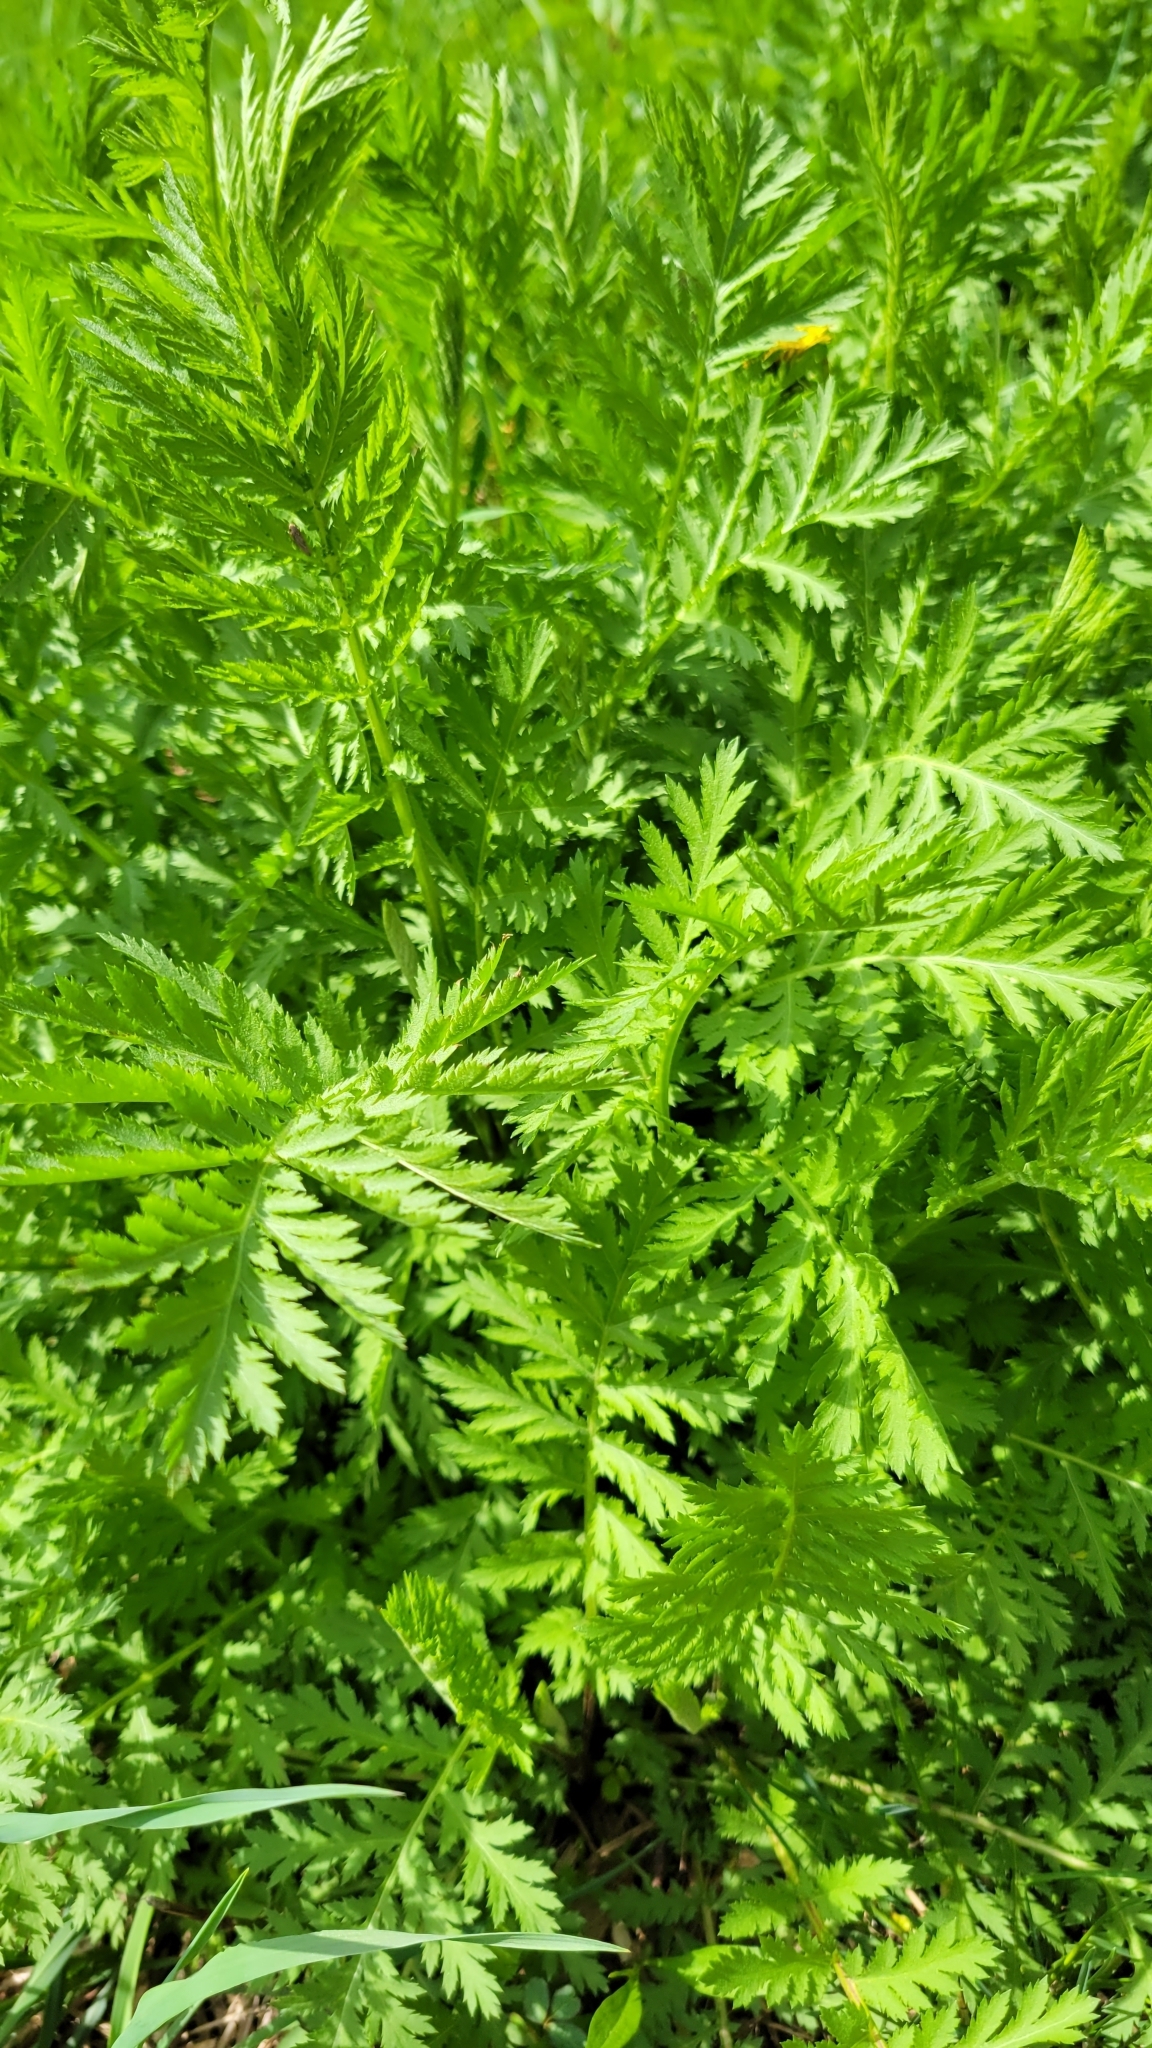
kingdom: Plantae
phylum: Tracheophyta
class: Magnoliopsida
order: Asterales
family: Asteraceae
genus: Tanacetum
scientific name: Tanacetum vulgare
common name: Common tansy
